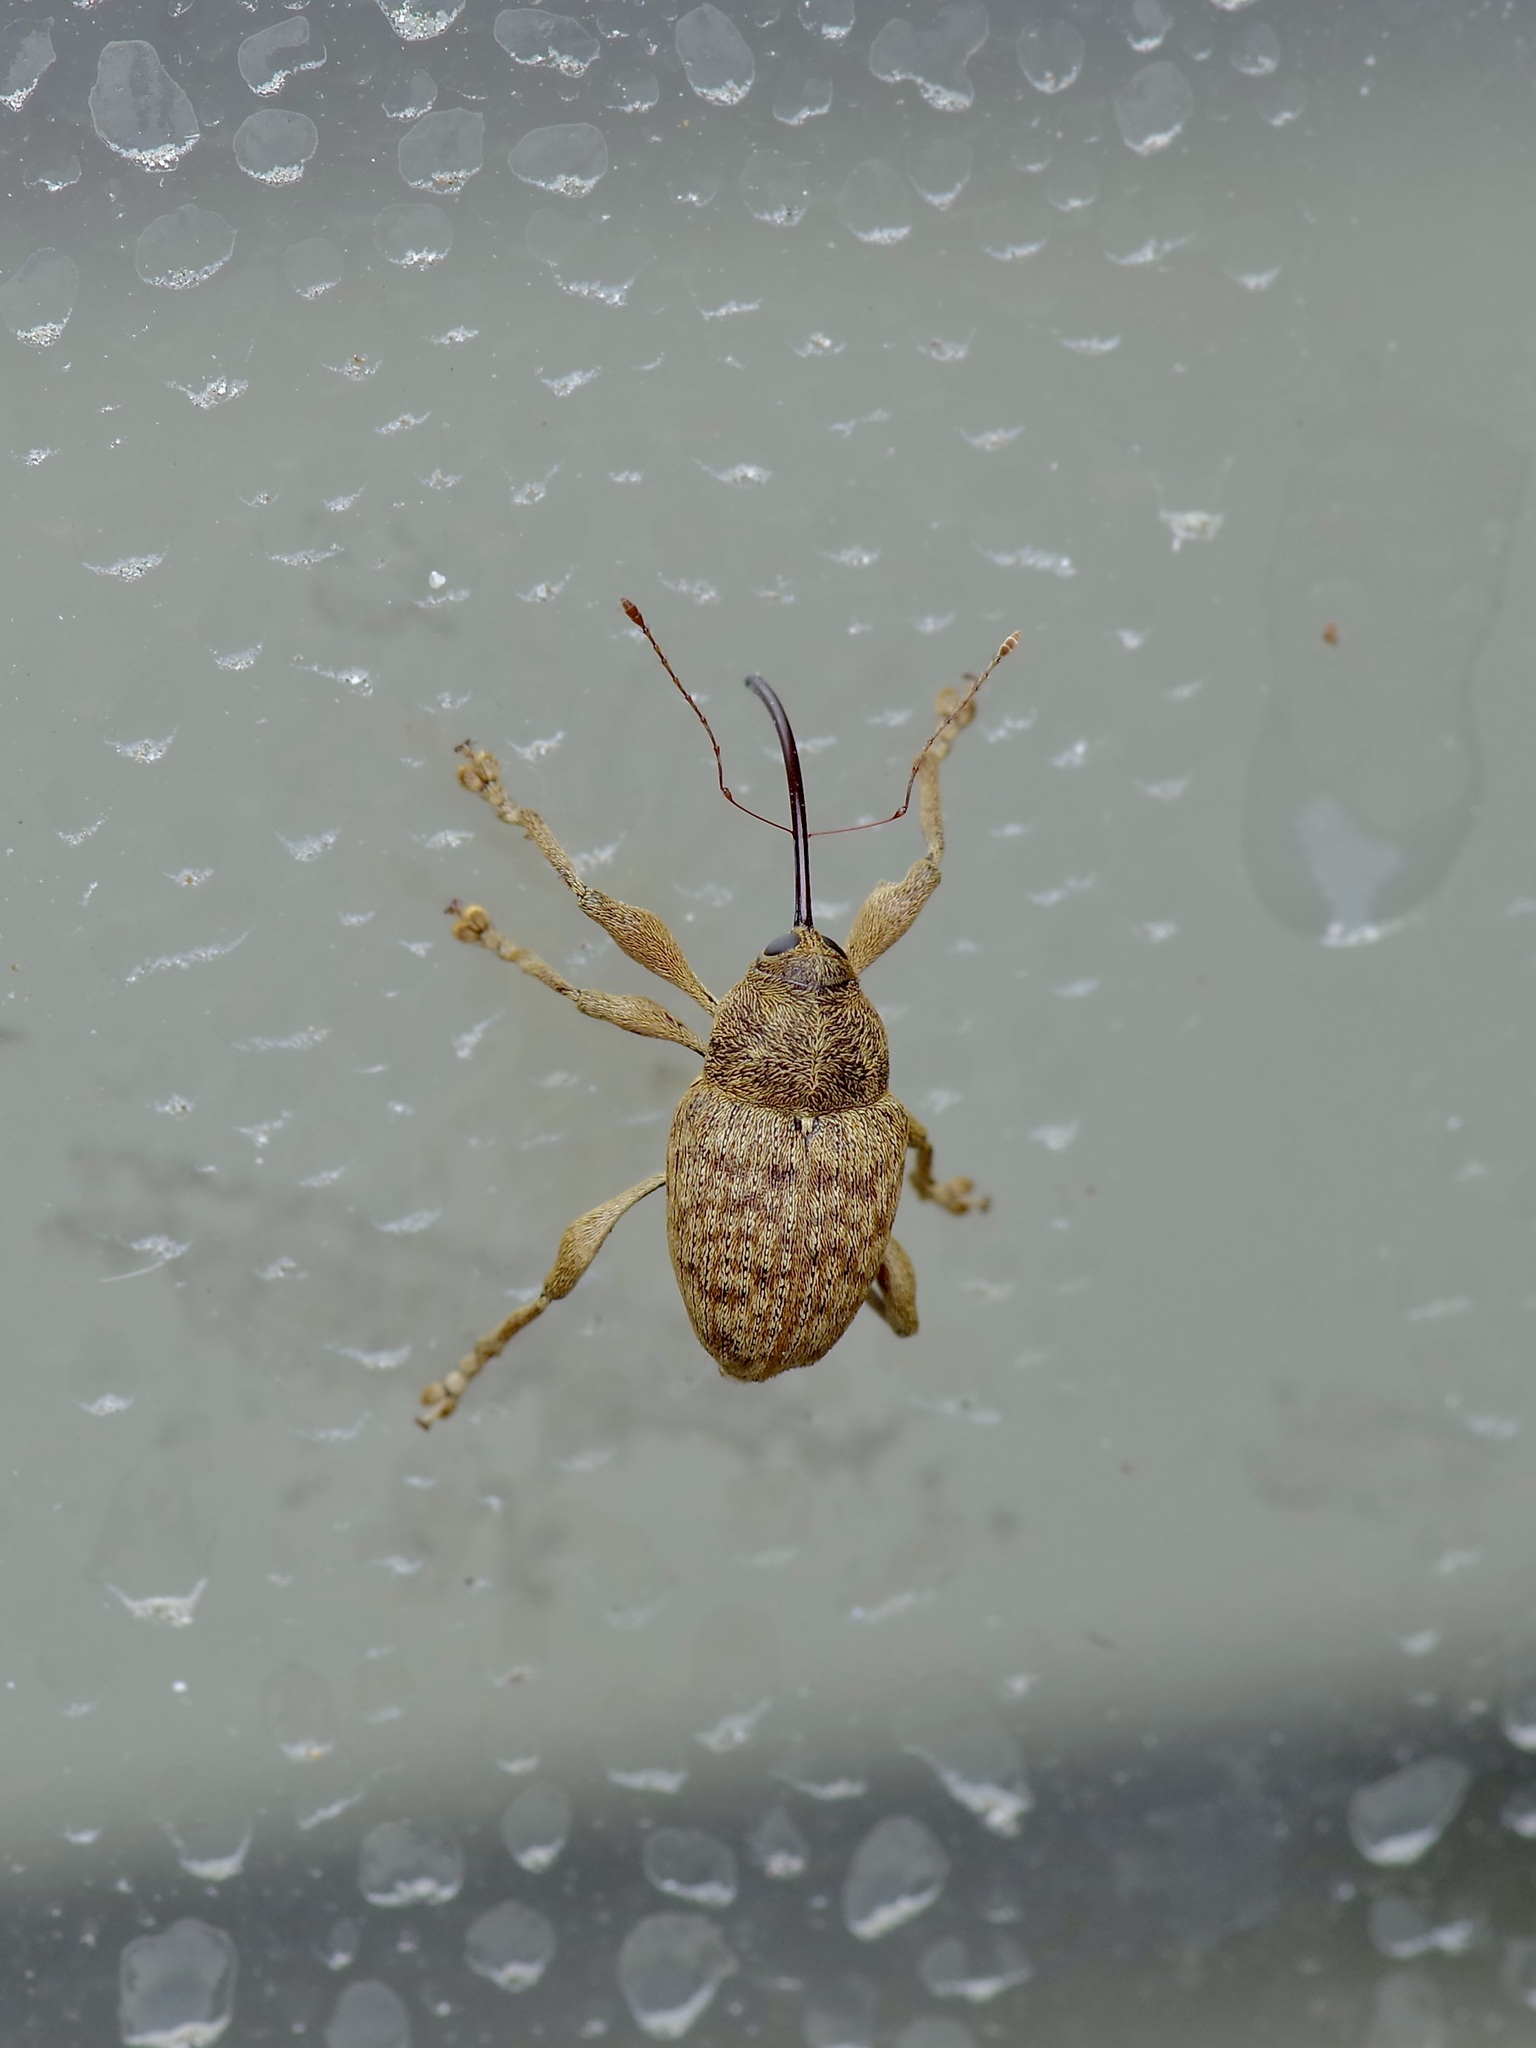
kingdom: Animalia
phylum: Arthropoda
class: Insecta
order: Coleoptera
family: Curculionidae
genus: Curculio
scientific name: Curculio
